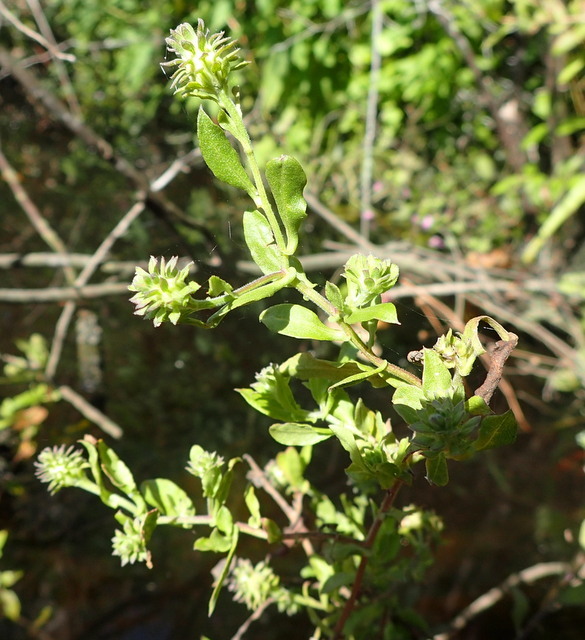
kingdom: Plantae
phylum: Tracheophyta
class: Magnoliopsida
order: Asterales
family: Asteraceae
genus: Ampelaster
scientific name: Ampelaster carolinianus
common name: Climbing aster
